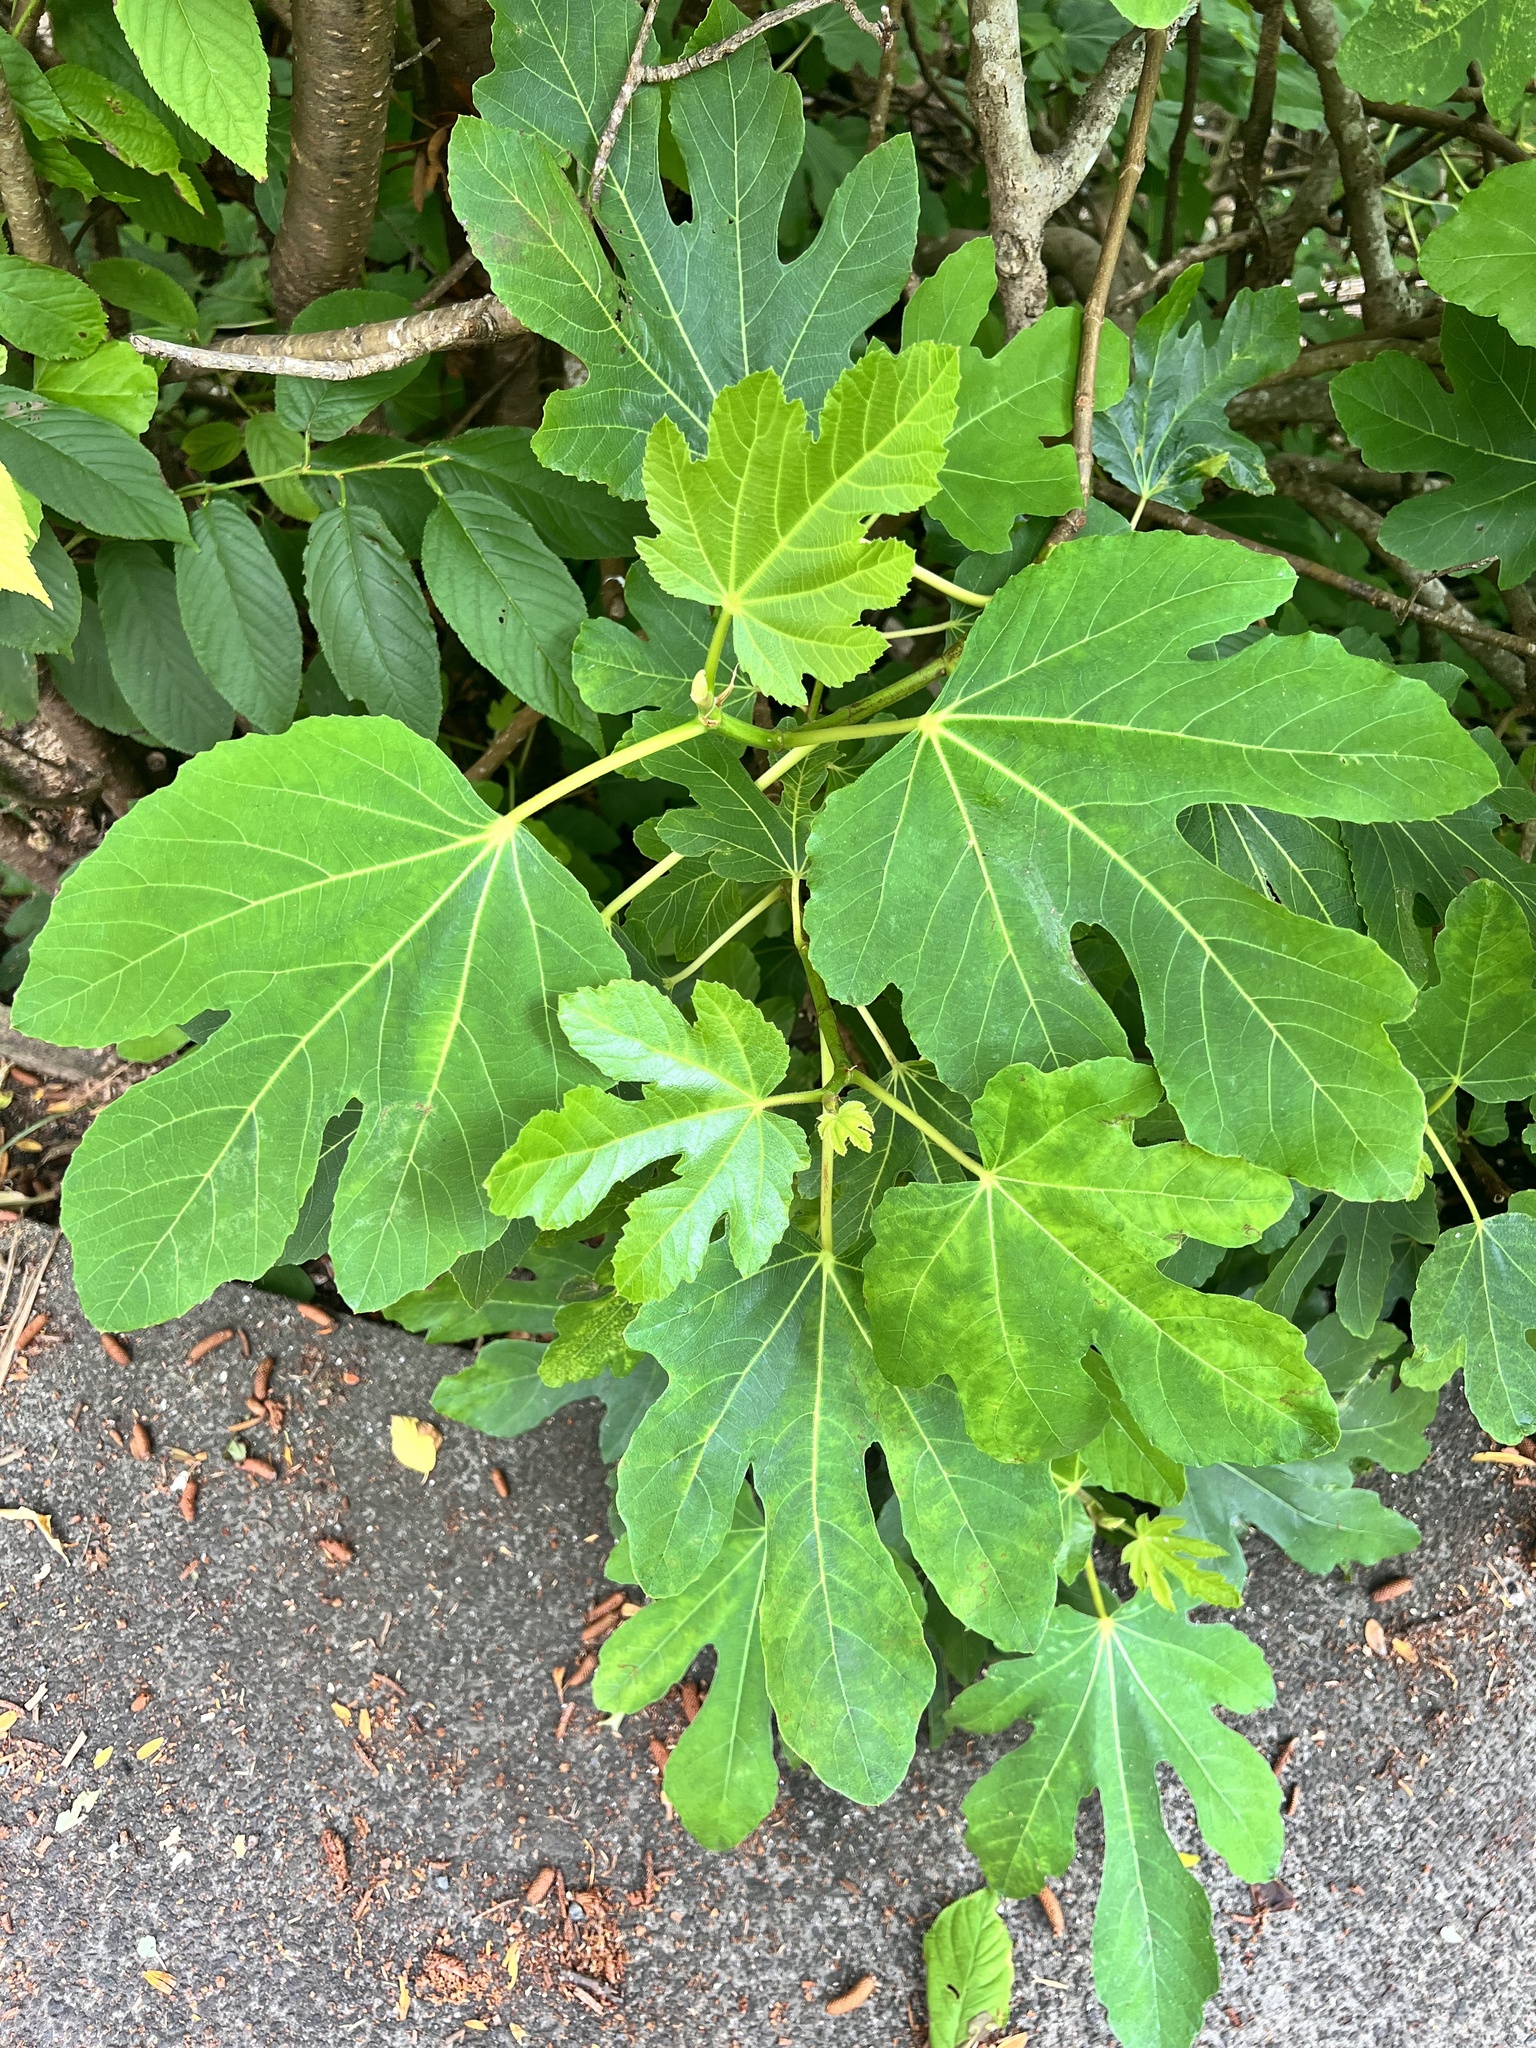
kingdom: Plantae
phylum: Tracheophyta
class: Magnoliopsida
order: Rosales
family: Moraceae
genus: Ficus
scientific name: Ficus carica
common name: Fig
